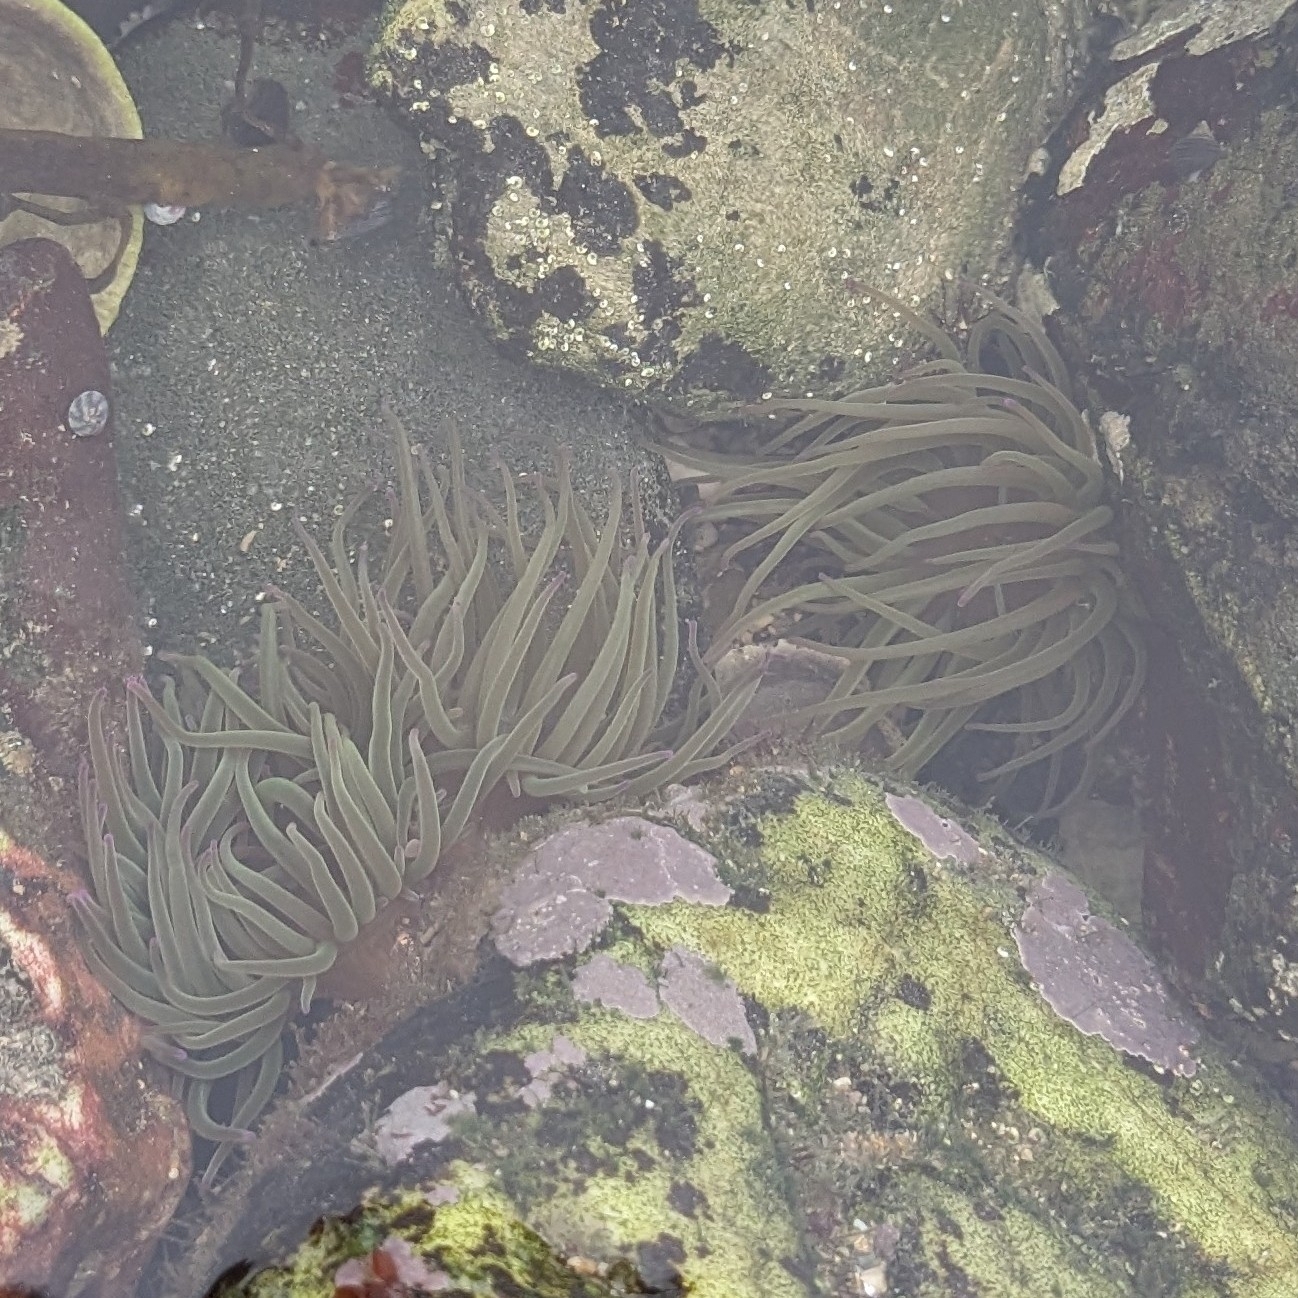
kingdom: Animalia
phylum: Cnidaria
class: Anthozoa
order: Actiniaria
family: Actiniidae
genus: Anemonia
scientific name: Anemonia viridis
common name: Snakelocks anemone
